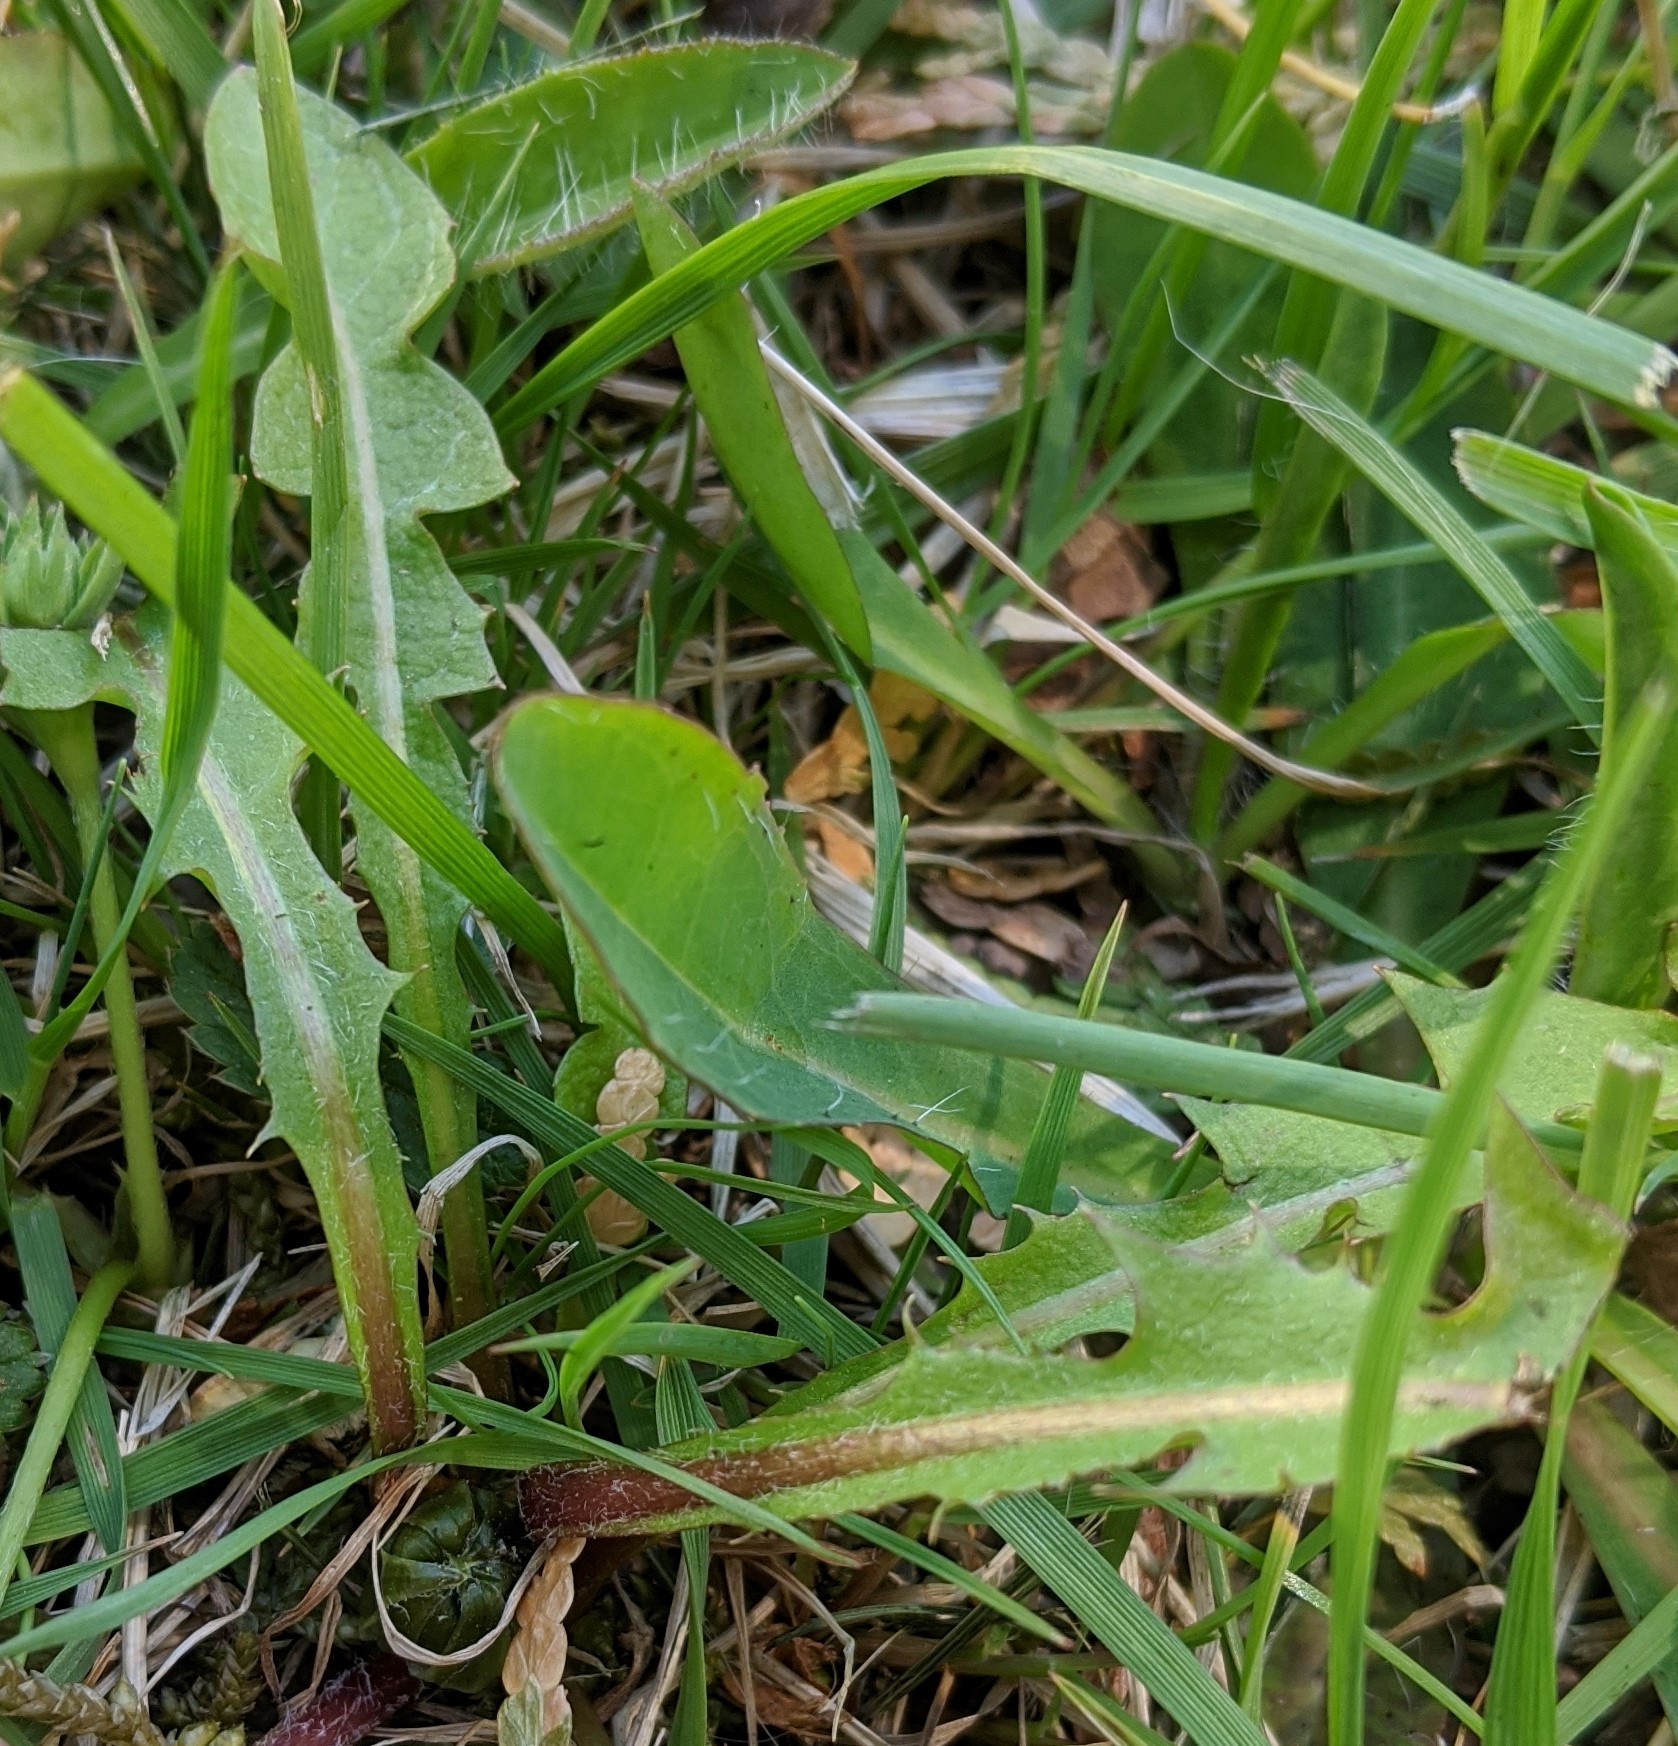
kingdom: Plantae
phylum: Tracheophyta
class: Magnoliopsida
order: Asterales
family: Asteraceae
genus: Taraxacum
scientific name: Taraxacum officinale
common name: Common dandelion
